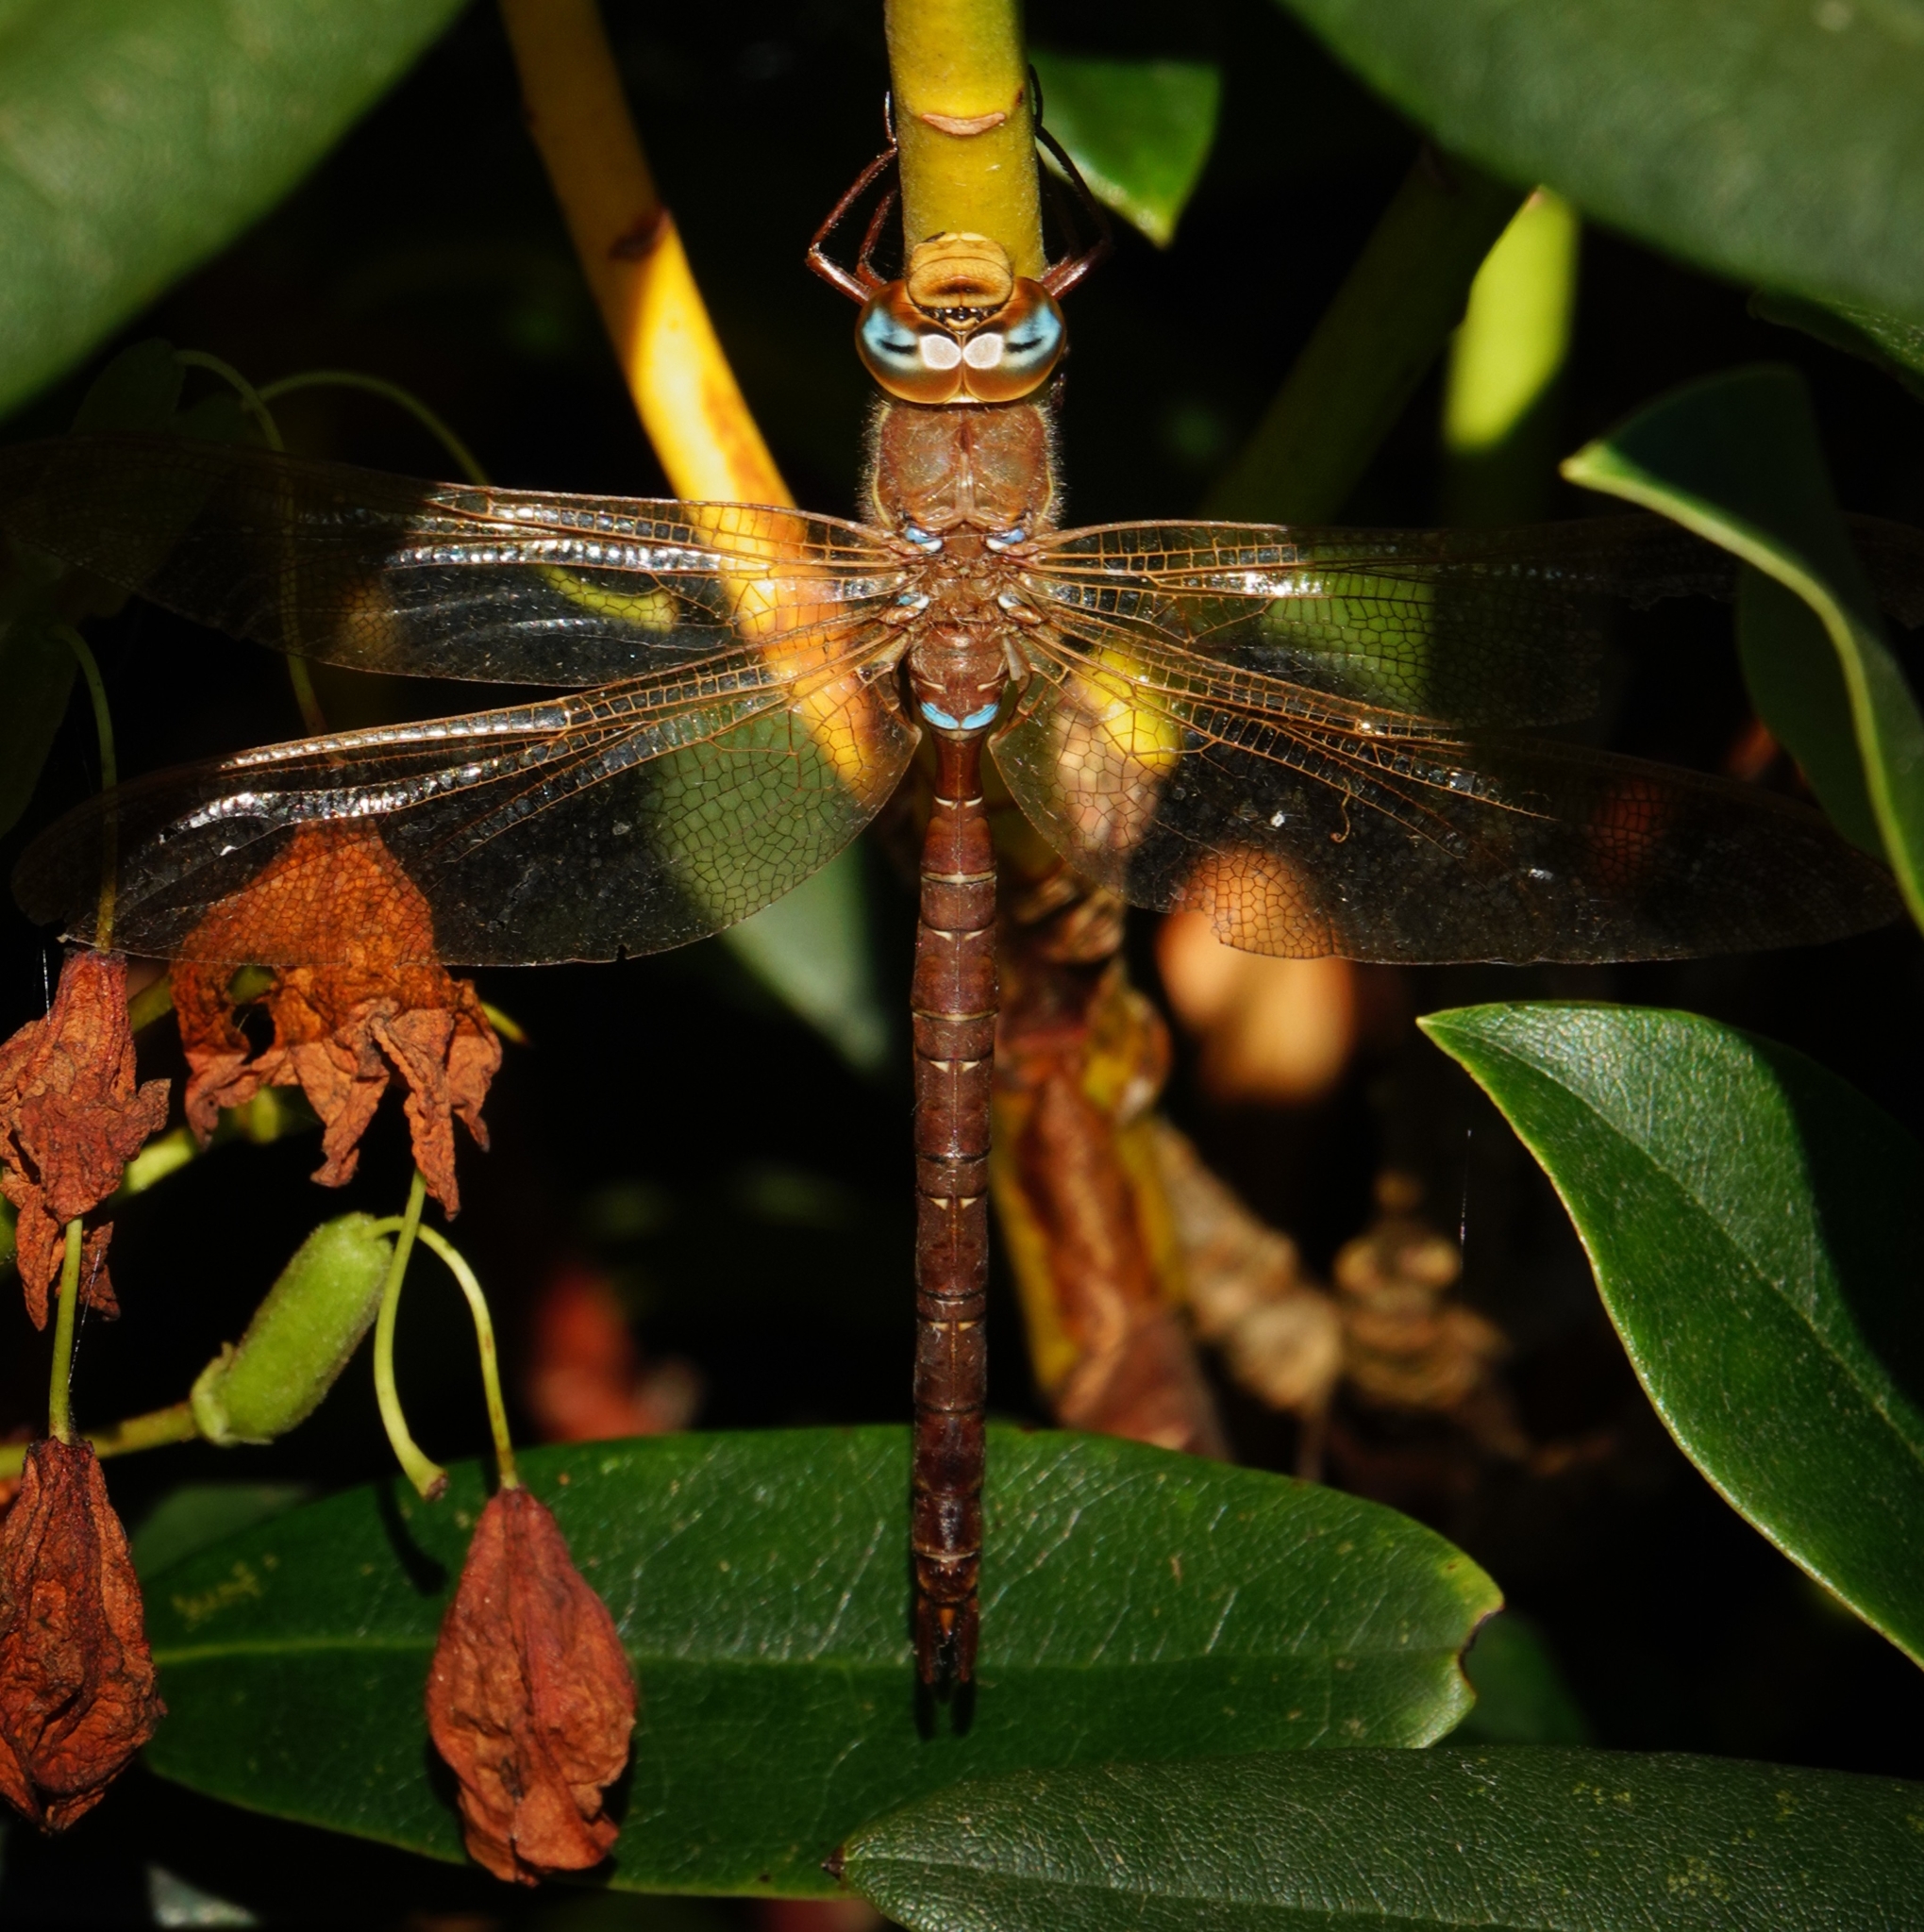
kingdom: Animalia
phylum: Arthropoda
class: Insecta
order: Odonata
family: Aeshnidae
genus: Aeshna
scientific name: Aeshna grandis
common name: Brown hawker
